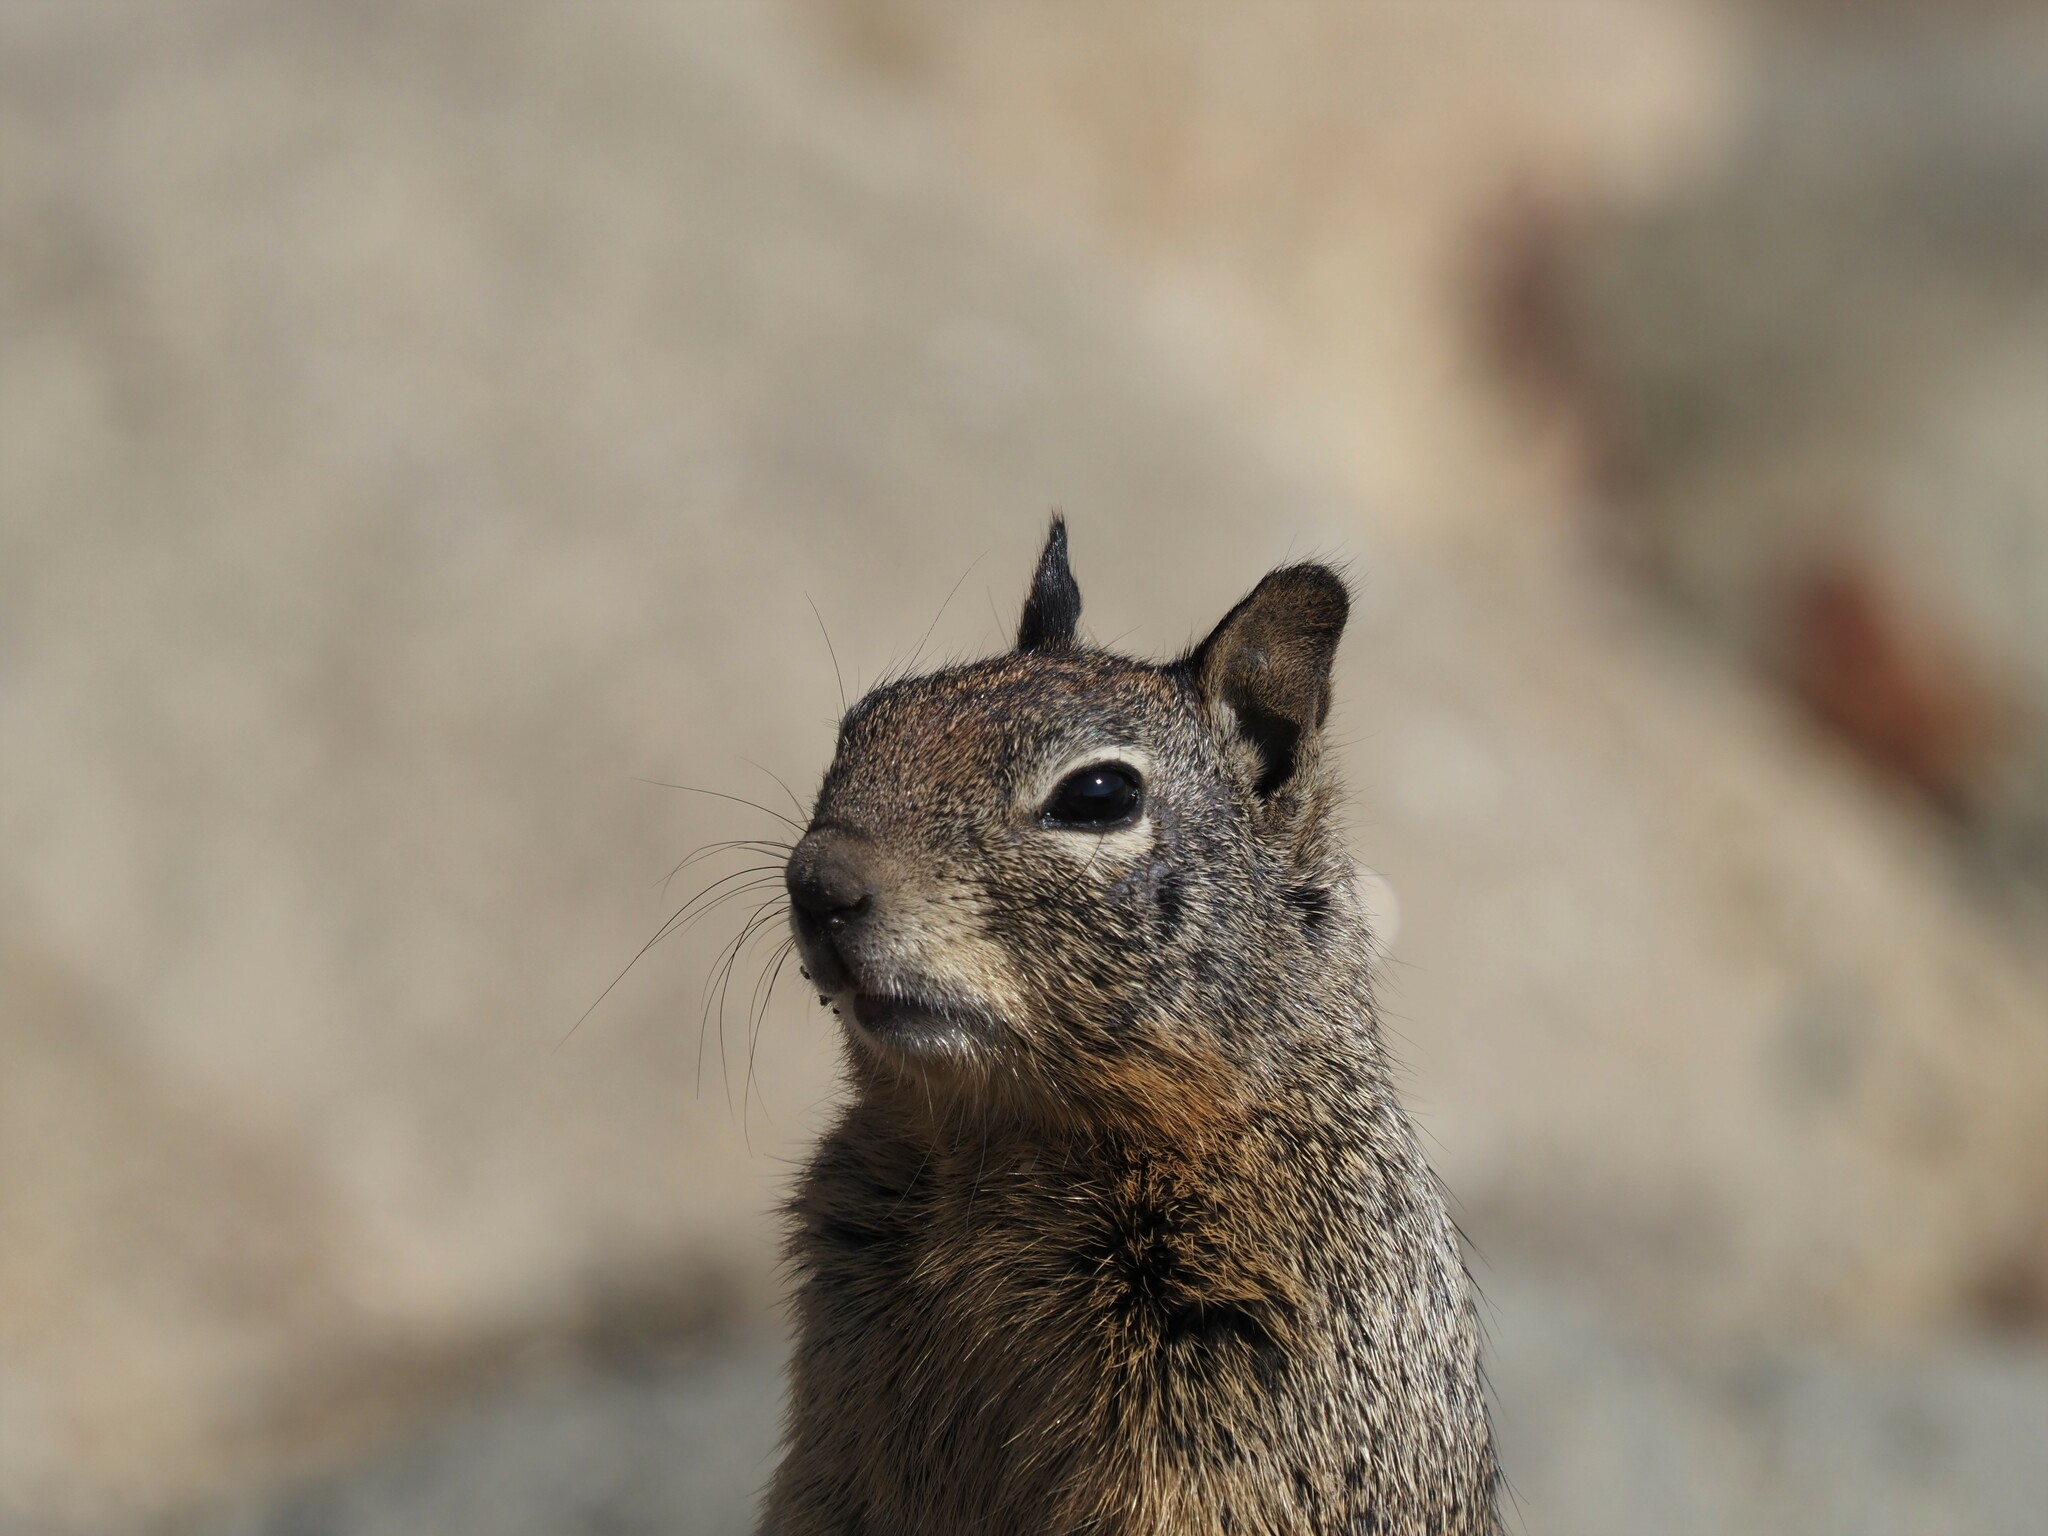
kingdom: Animalia
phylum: Chordata
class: Mammalia
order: Rodentia
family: Sciuridae
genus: Otospermophilus
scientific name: Otospermophilus beecheyi
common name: California ground squirrel
